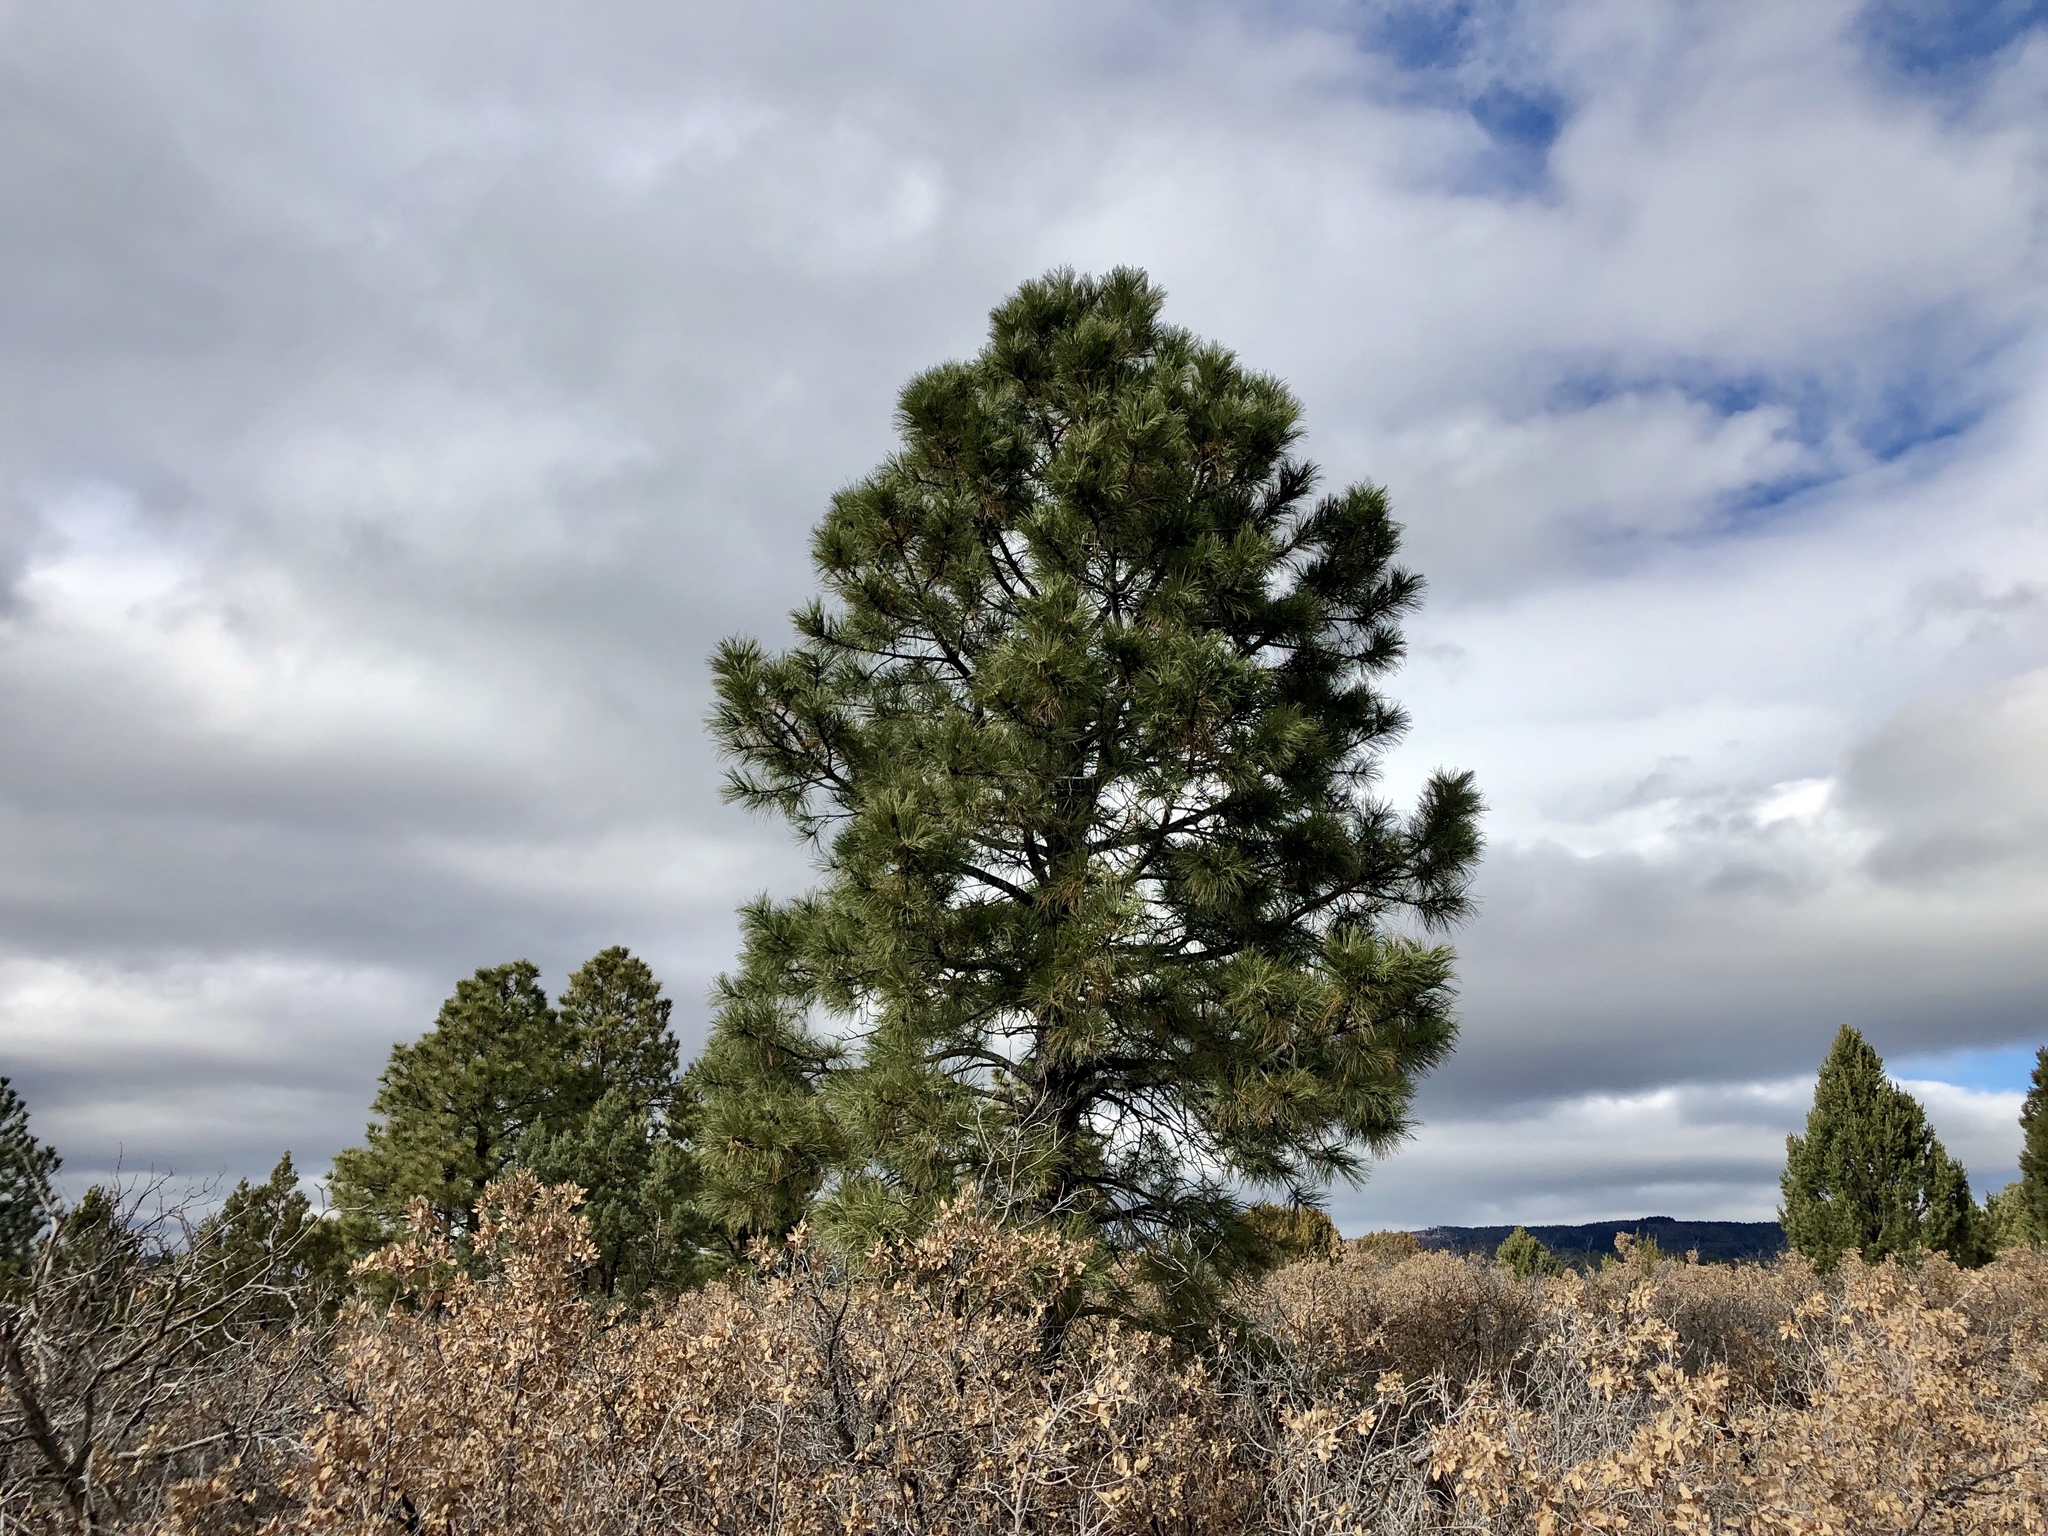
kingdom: Plantae
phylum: Tracheophyta
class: Pinopsida
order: Pinales
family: Pinaceae
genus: Pinus
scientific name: Pinus ponderosa
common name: Western yellow-pine
